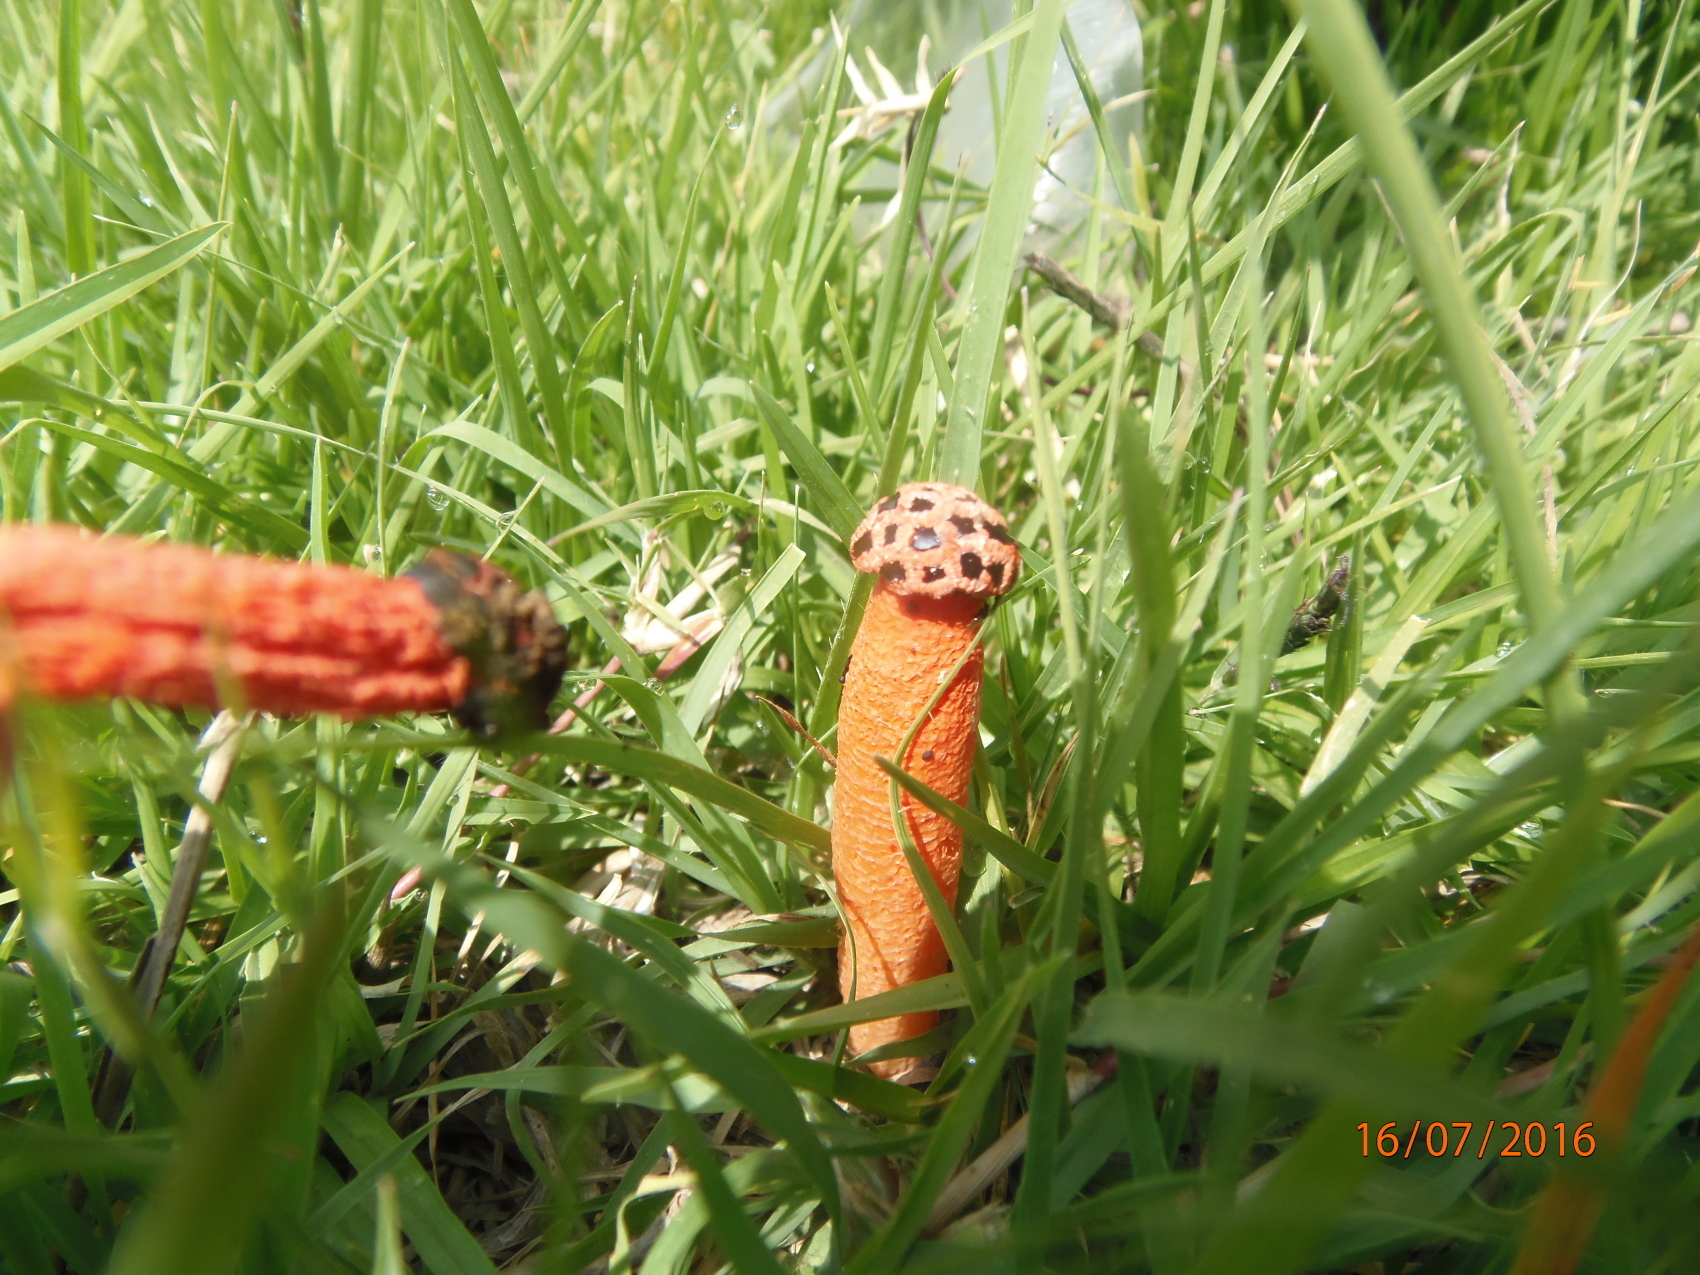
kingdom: Fungi
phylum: Basidiomycota
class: Agaricomycetes
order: Phallales
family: Phallaceae
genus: Lysurus
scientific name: Lysurus periphragmoides
